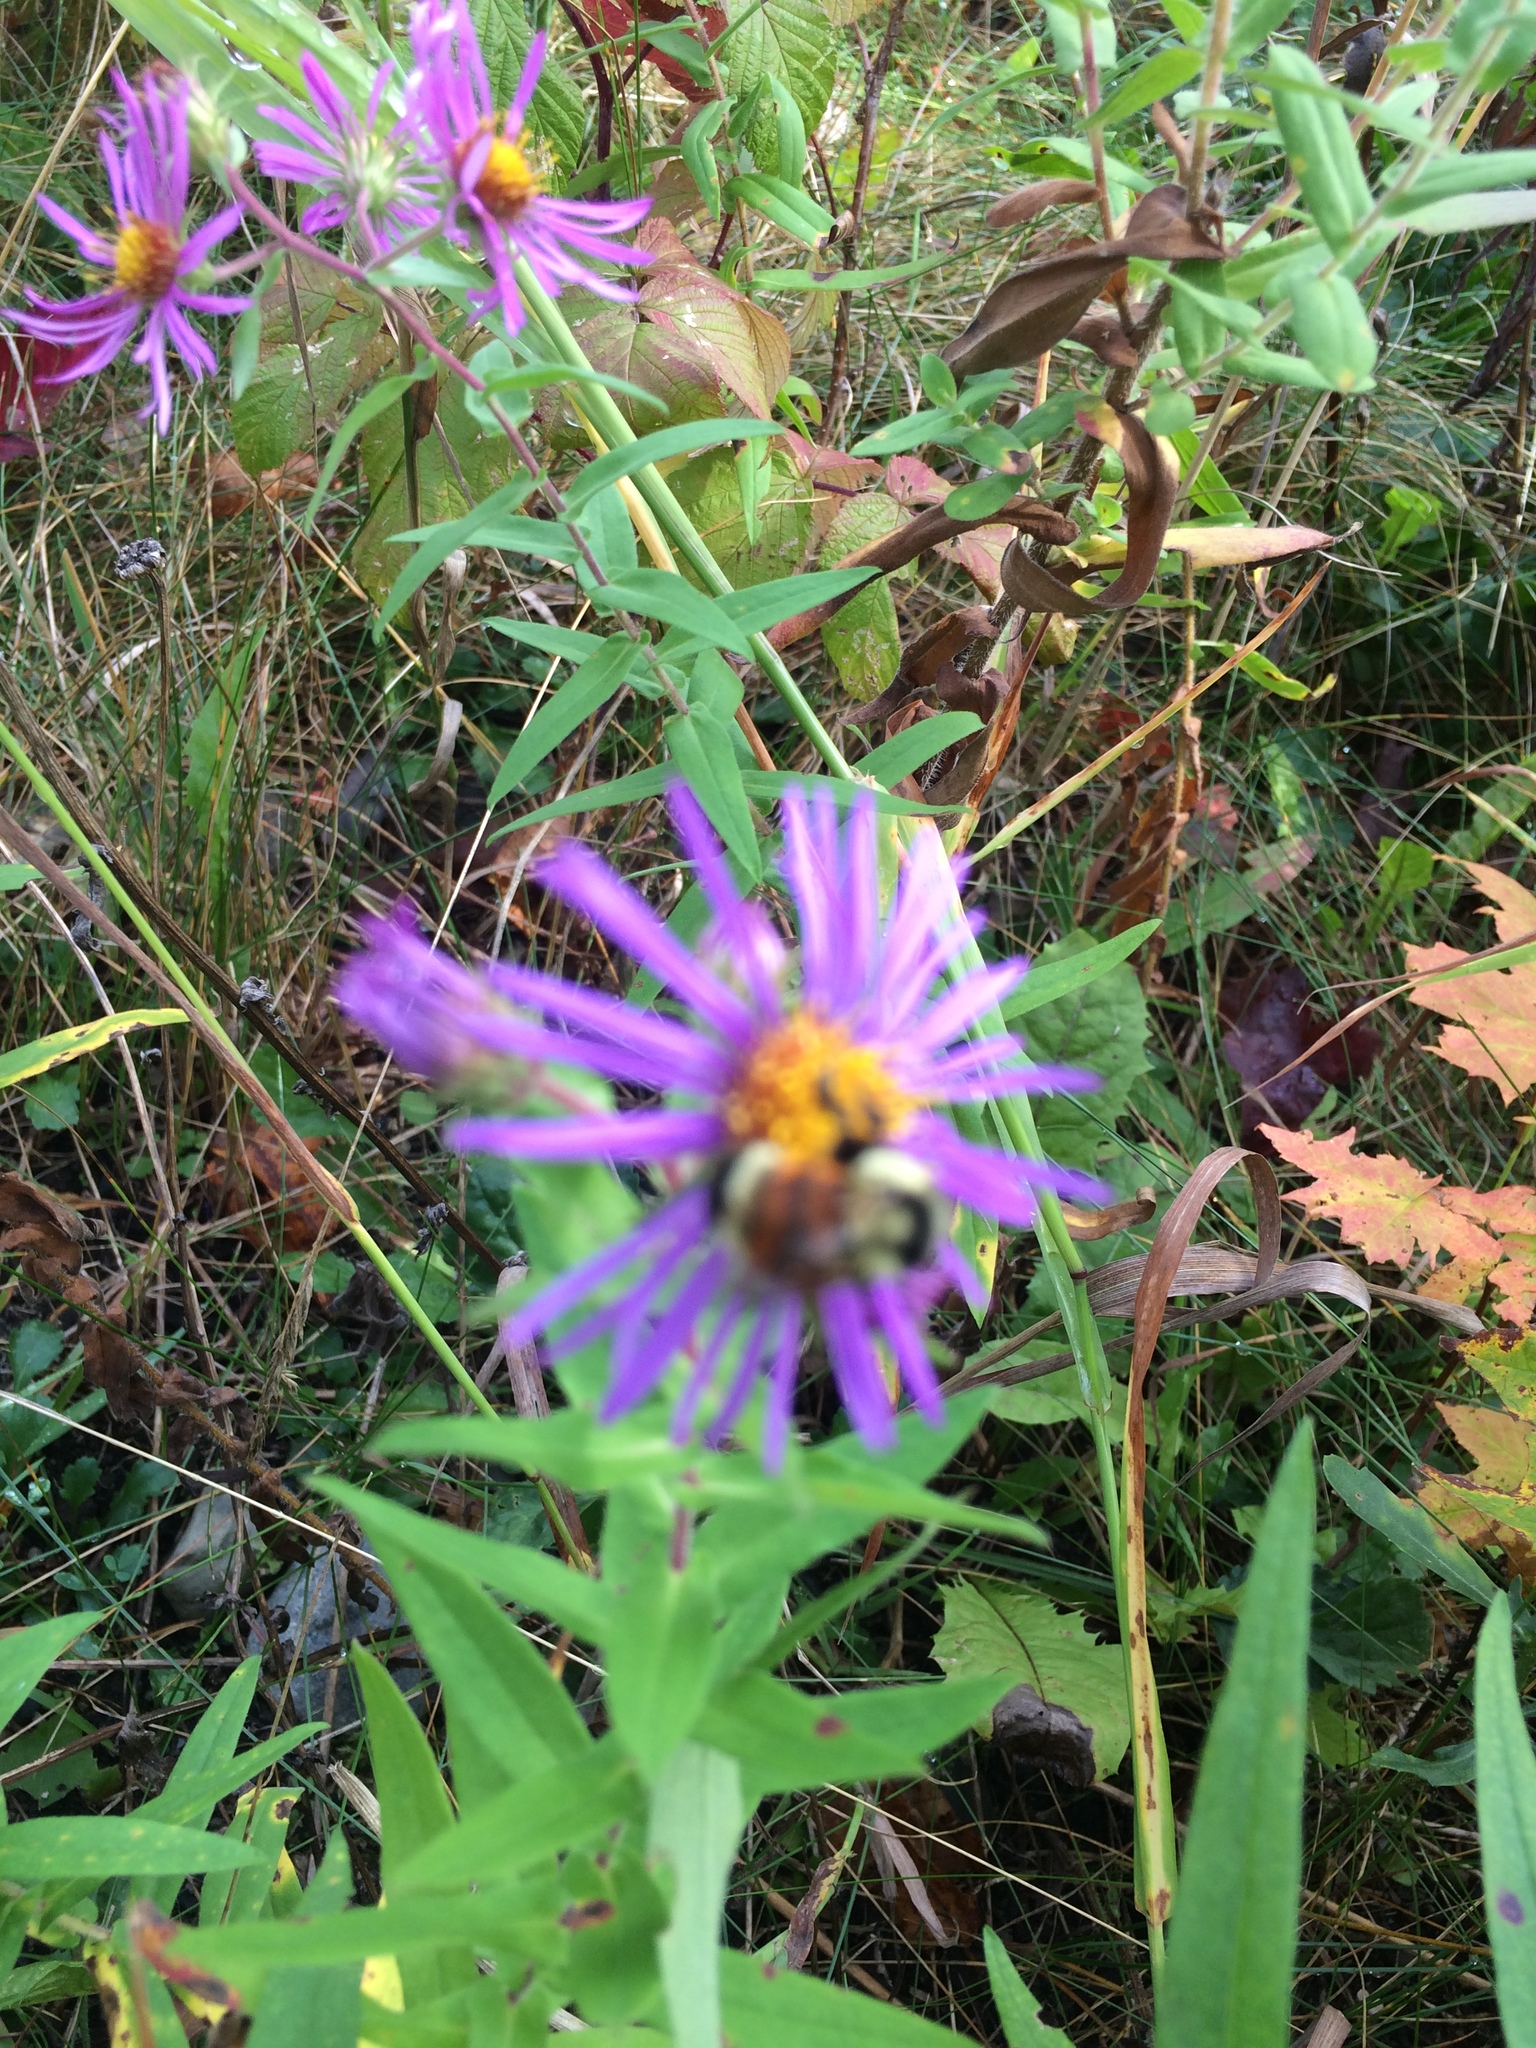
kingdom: Animalia
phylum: Arthropoda
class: Insecta
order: Hymenoptera
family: Apidae
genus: Bombus
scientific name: Bombus ternarius
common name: Tri-colored bumble bee
